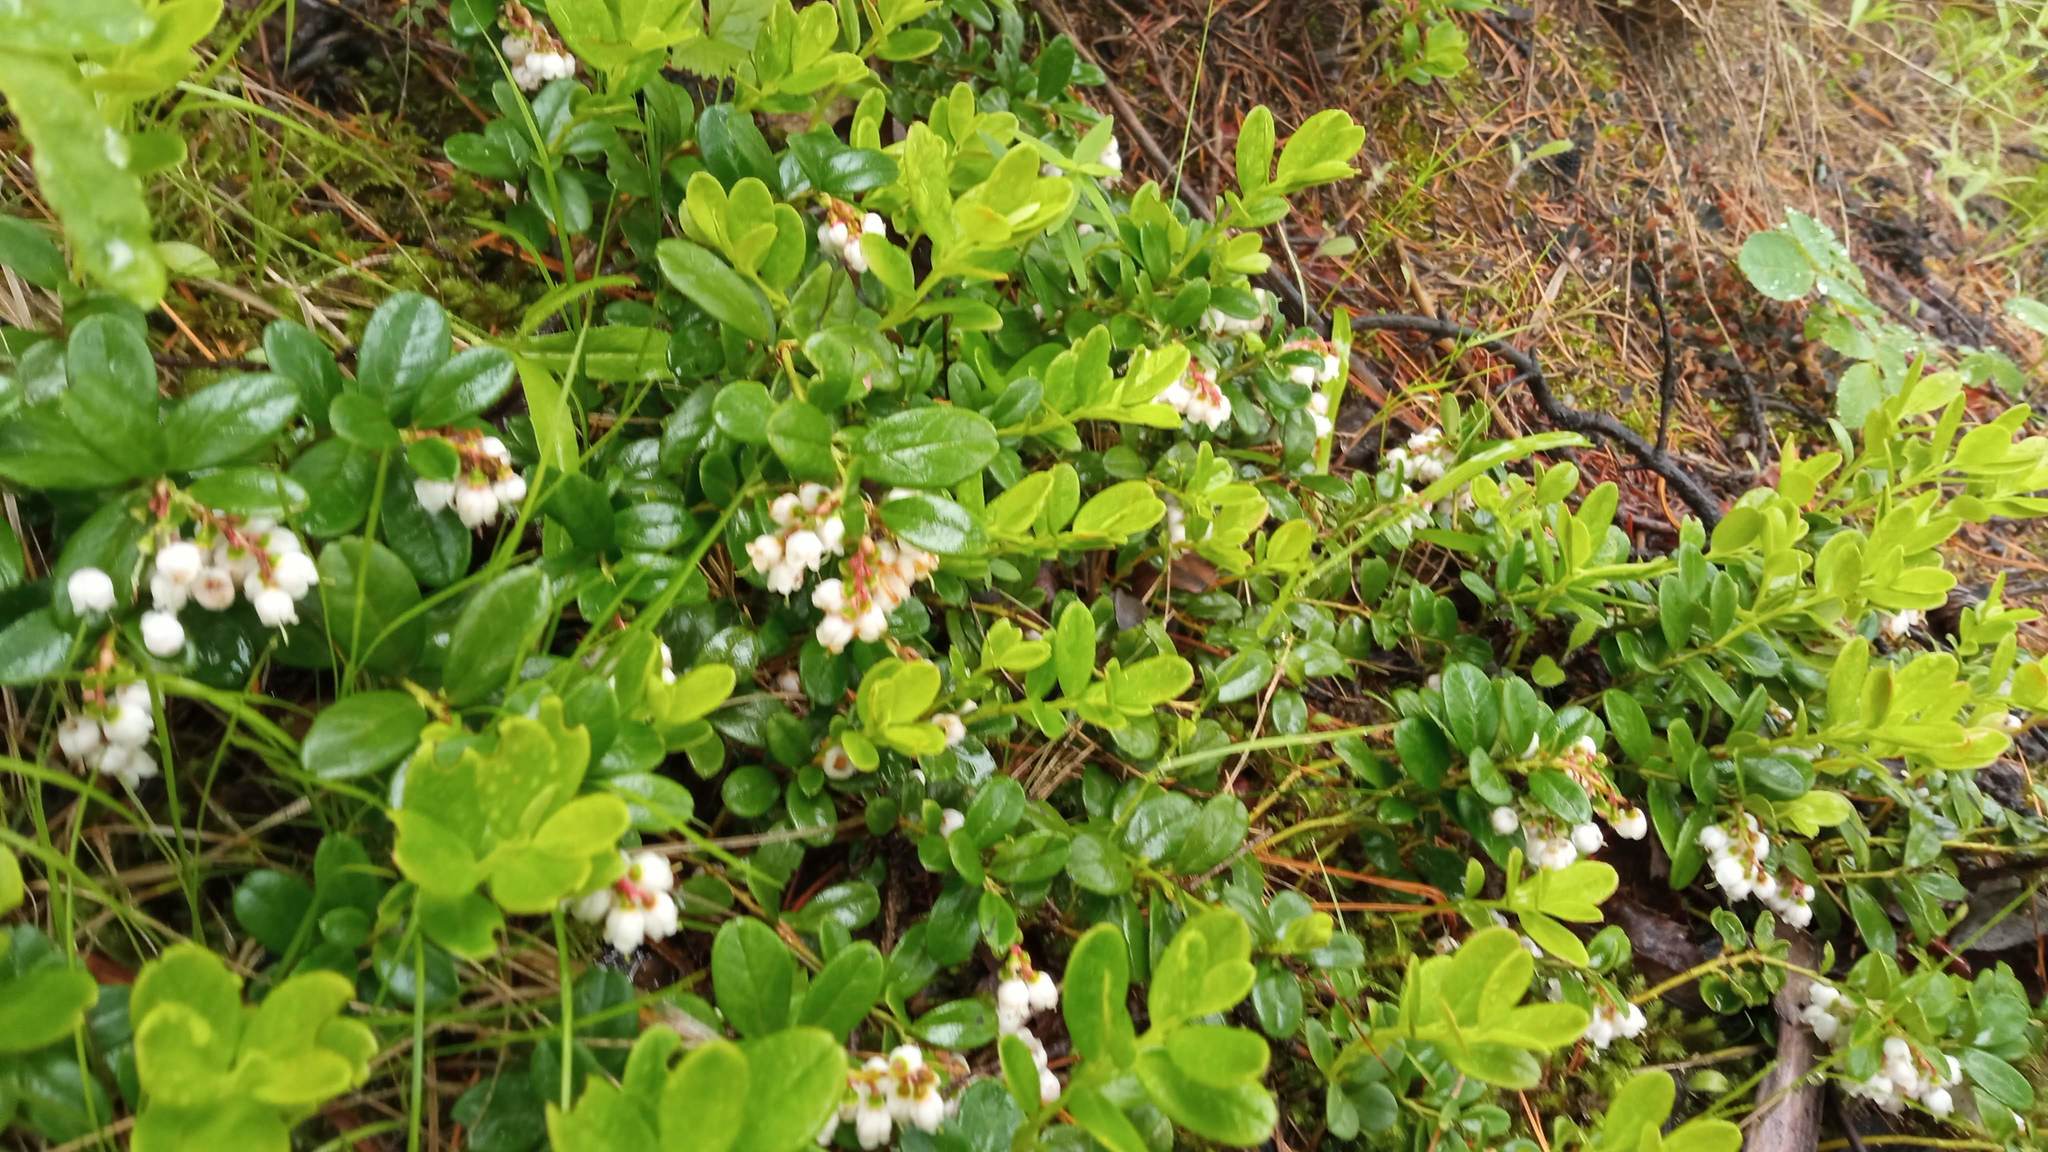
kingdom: Plantae
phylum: Tracheophyta
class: Magnoliopsida
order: Ericales
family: Ericaceae
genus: Vaccinium
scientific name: Vaccinium vitis-idaea
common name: Cowberry
